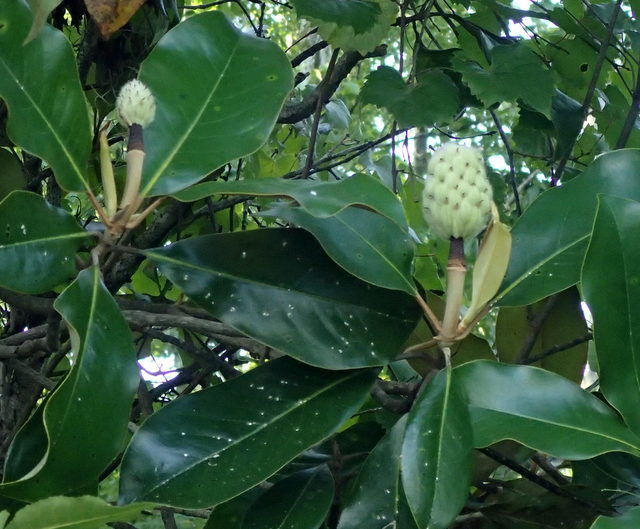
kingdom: Plantae
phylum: Tracheophyta
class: Magnoliopsida
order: Magnoliales
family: Magnoliaceae
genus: Magnolia
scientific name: Magnolia grandiflora
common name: Southern magnolia
